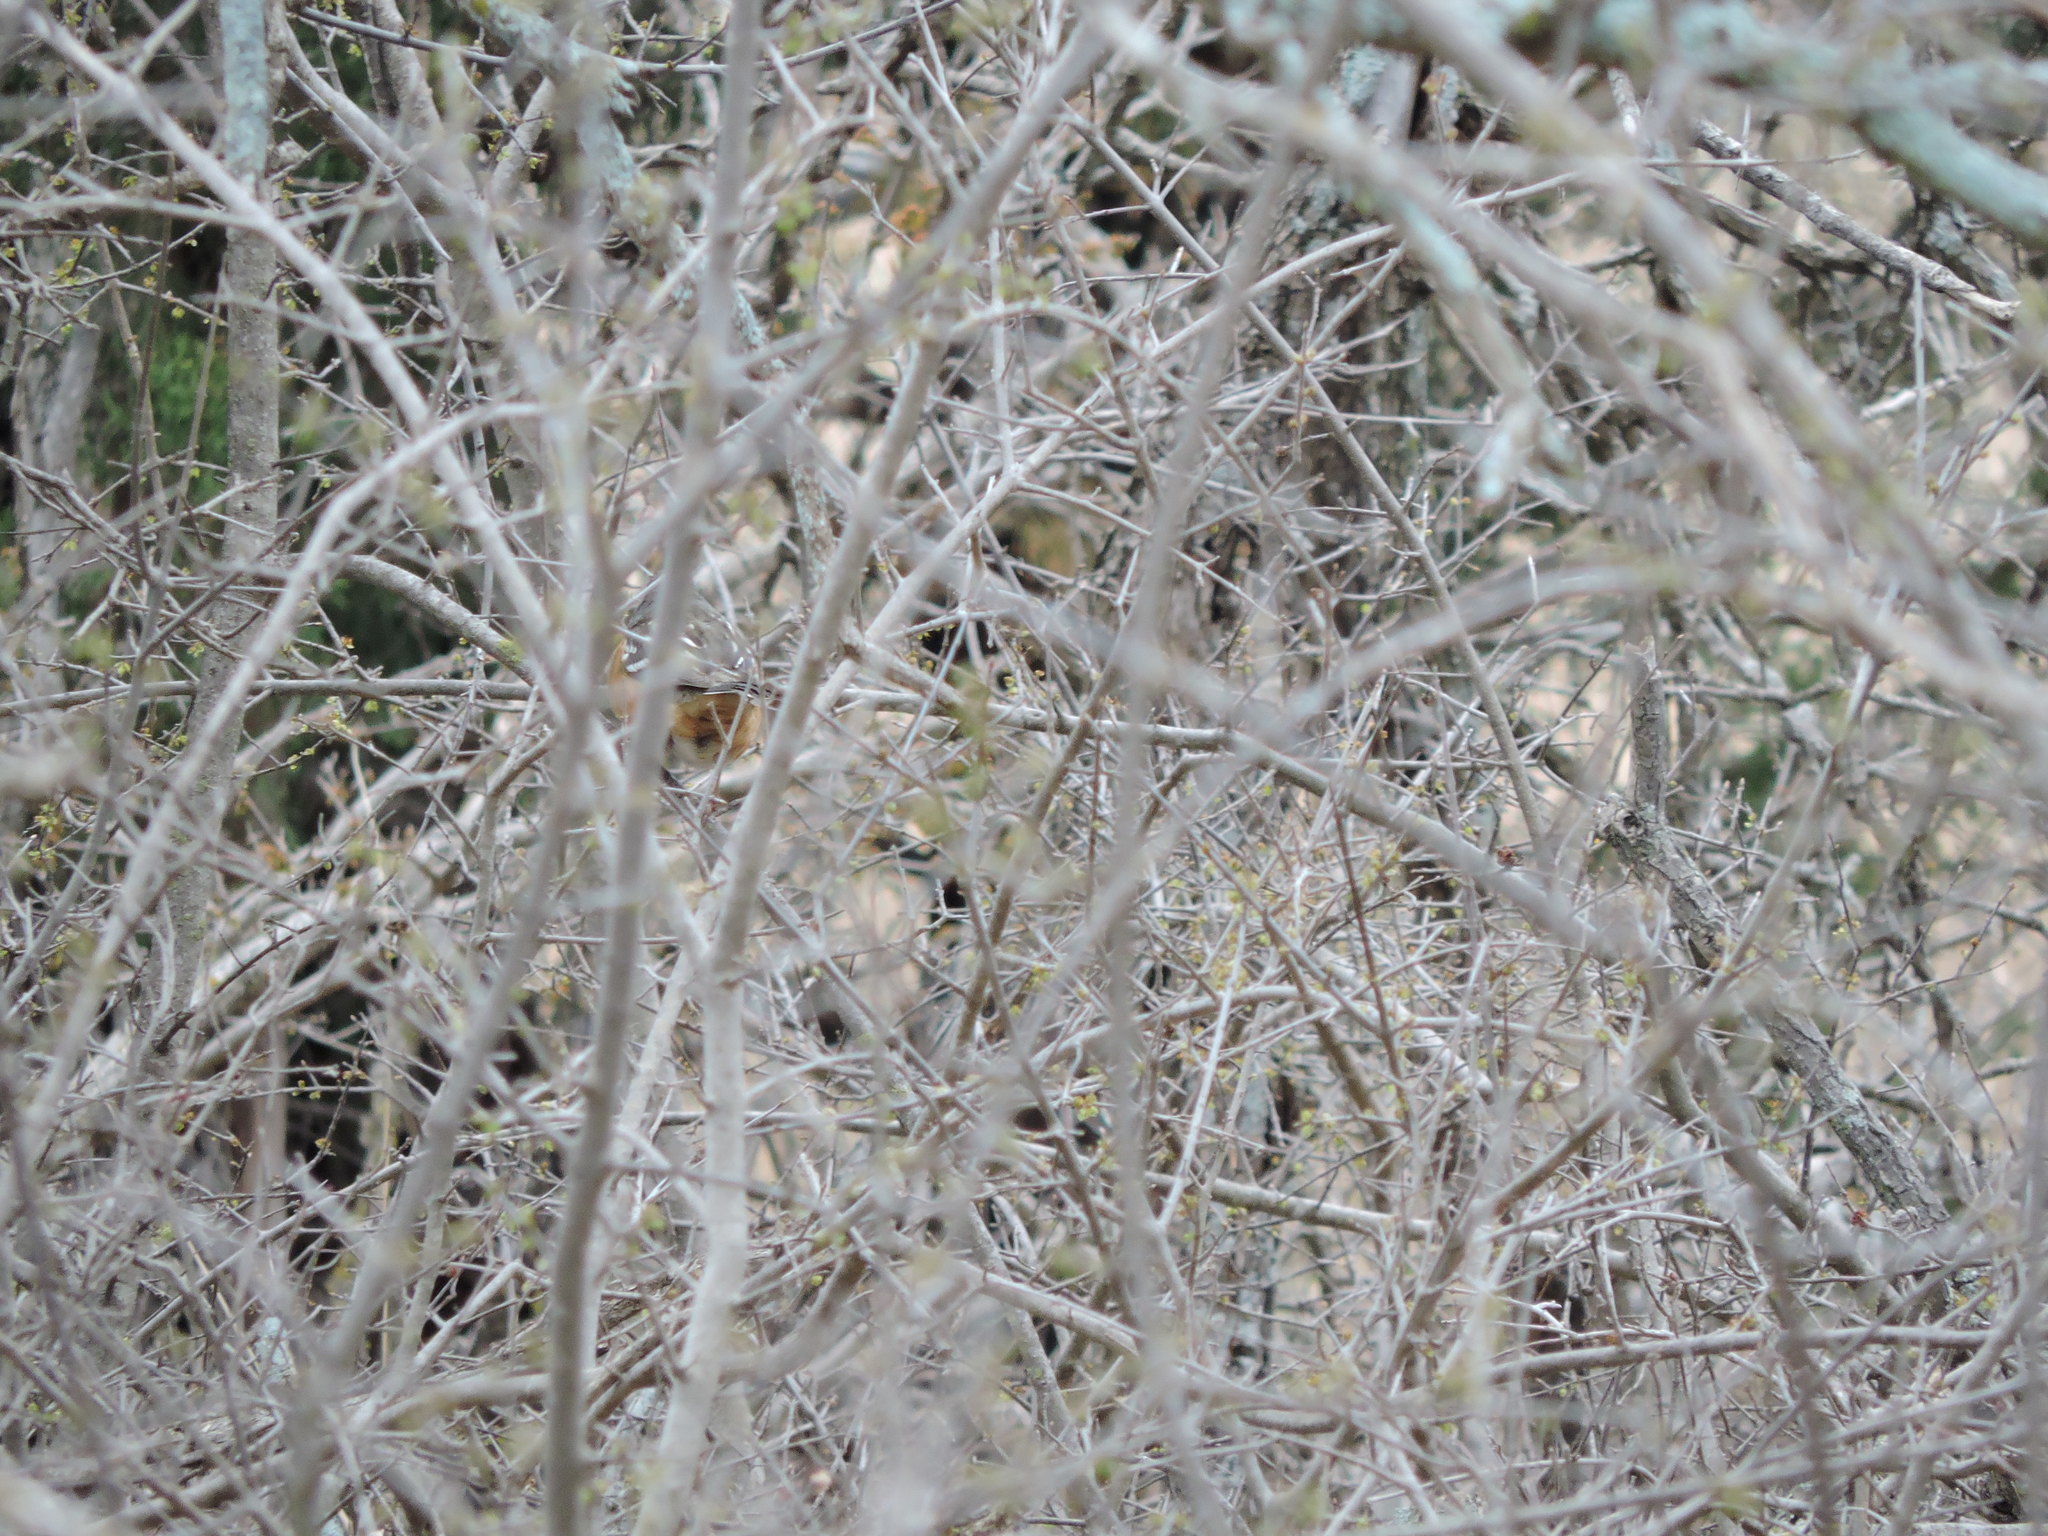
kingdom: Animalia
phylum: Chordata
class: Aves
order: Passeriformes
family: Passerellidae
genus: Pipilo
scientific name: Pipilo maculatus
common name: Spotted towhee
